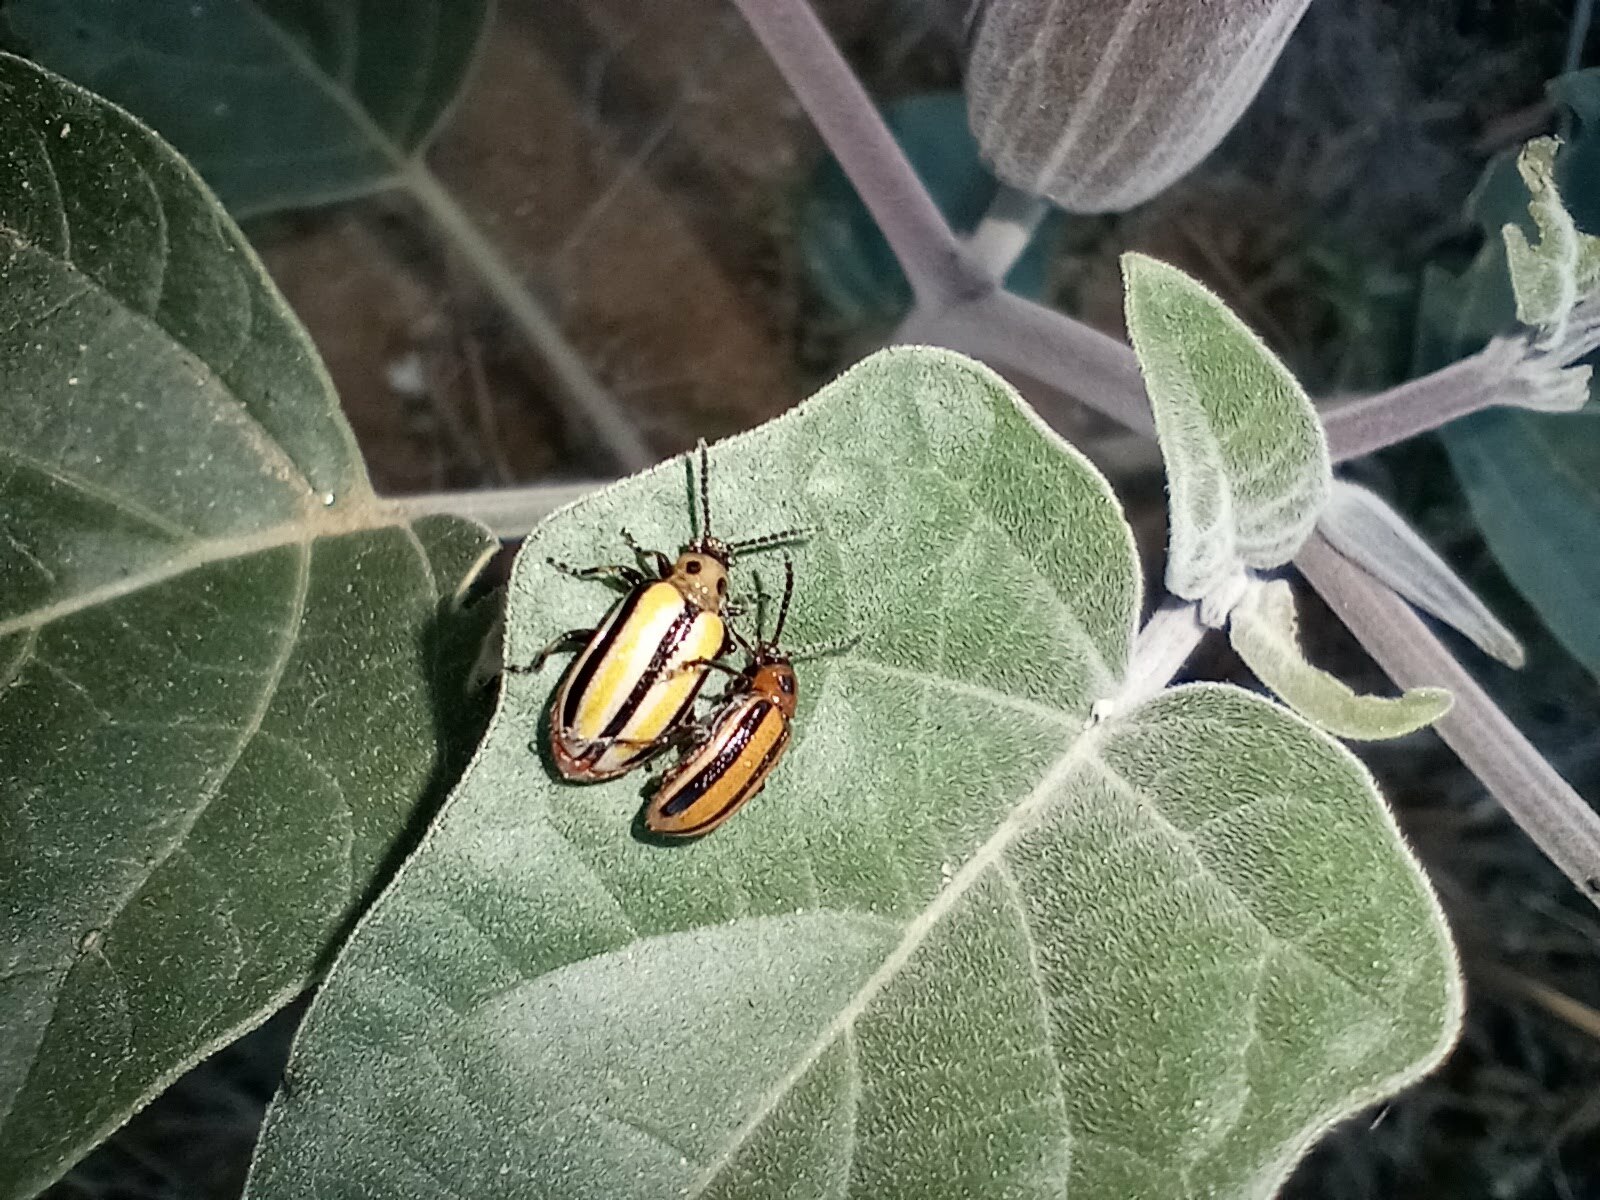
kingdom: Animalia
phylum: Arthropoda
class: Insecta
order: Coleoptera
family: Chrysomelidae
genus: Lema
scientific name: Lema daturaphila
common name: Leaf beetle
